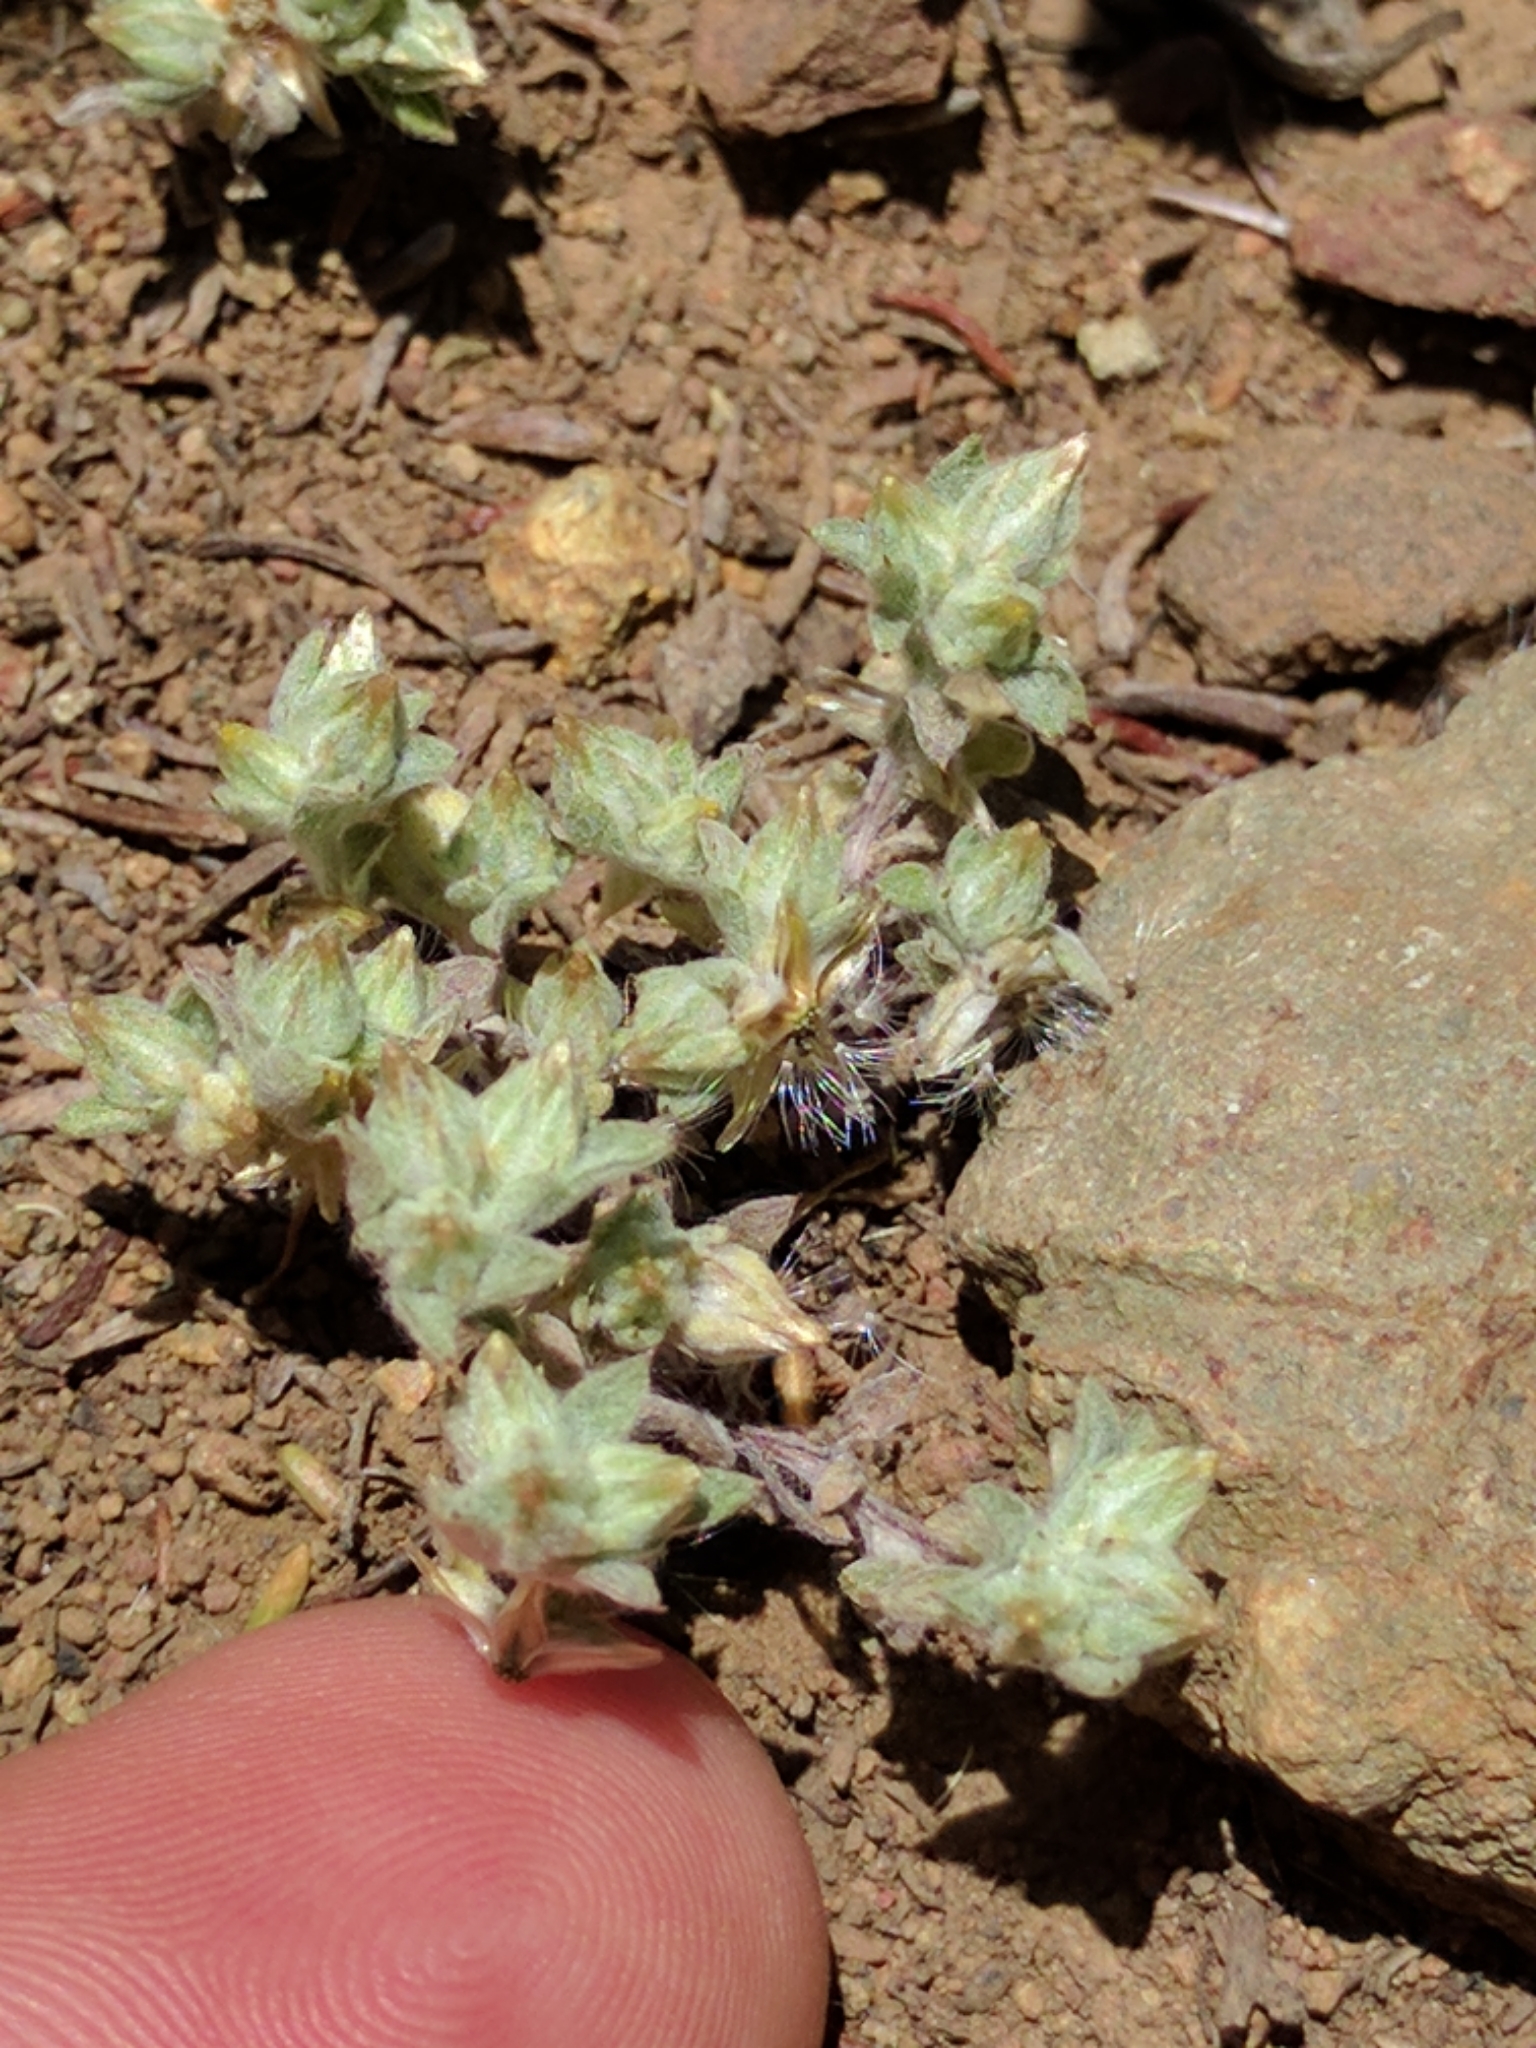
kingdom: Plantae
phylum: Tracheophyta
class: Magnoliopsida
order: Asterales
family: Asteraceae
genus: Logfia
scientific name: Logfia californica
